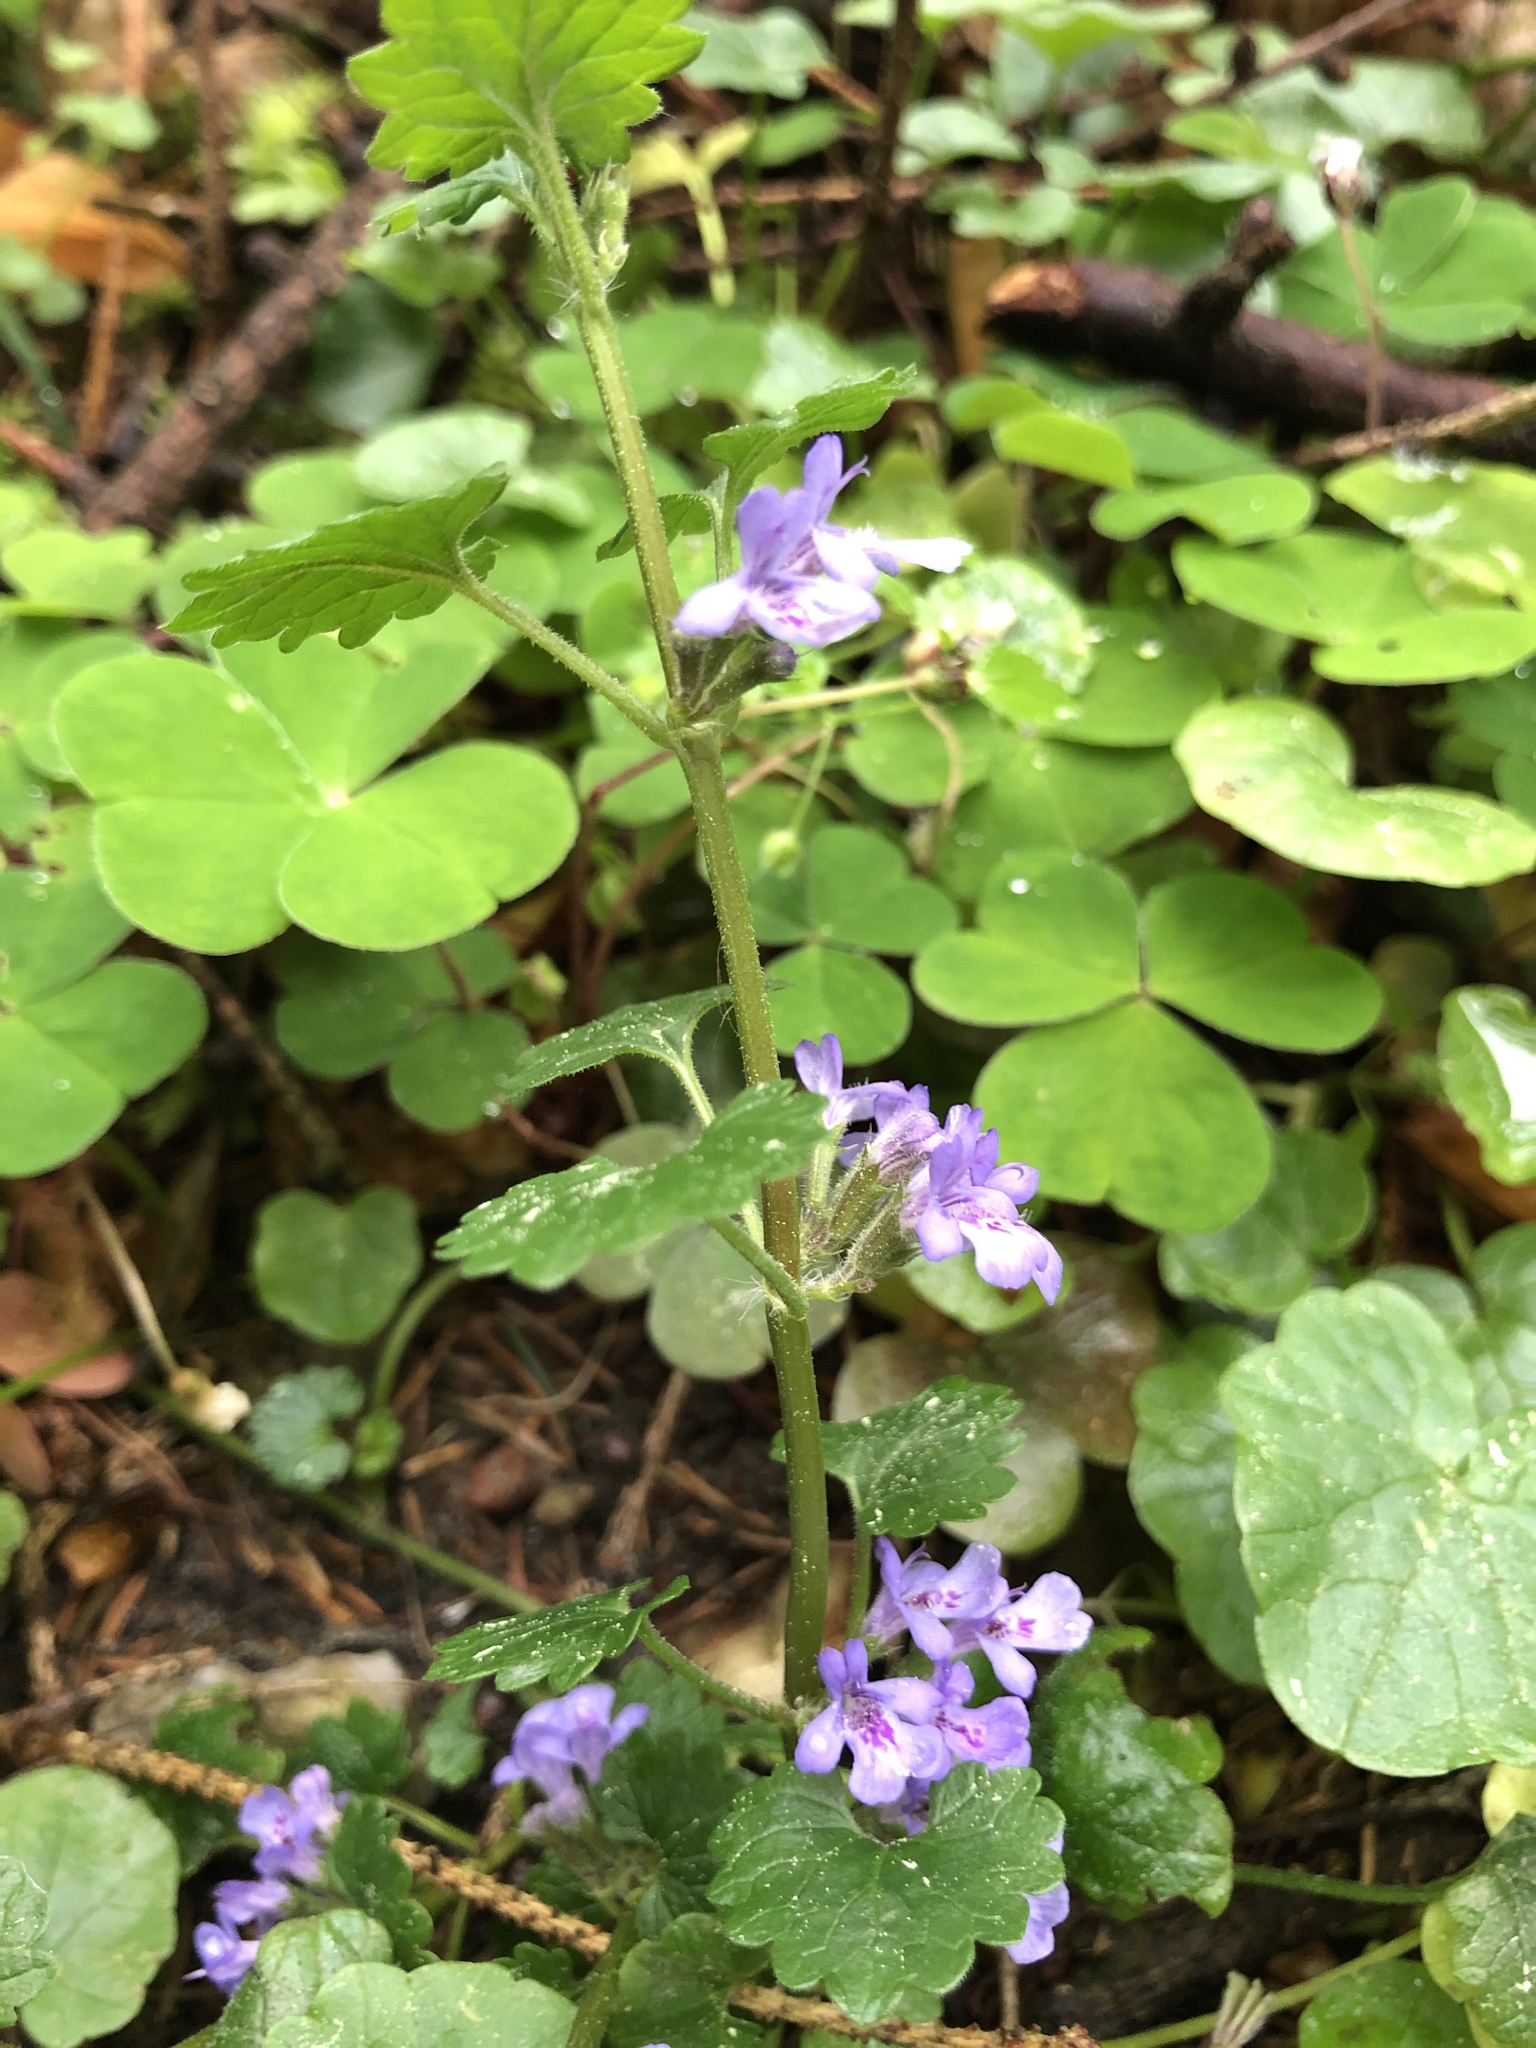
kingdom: Plantae
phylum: Tracheophyta
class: Magnoliopsida
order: Lamiales
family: Lamiaceae
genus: Glechoma
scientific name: Glechoma hederacea
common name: Ground ivy
